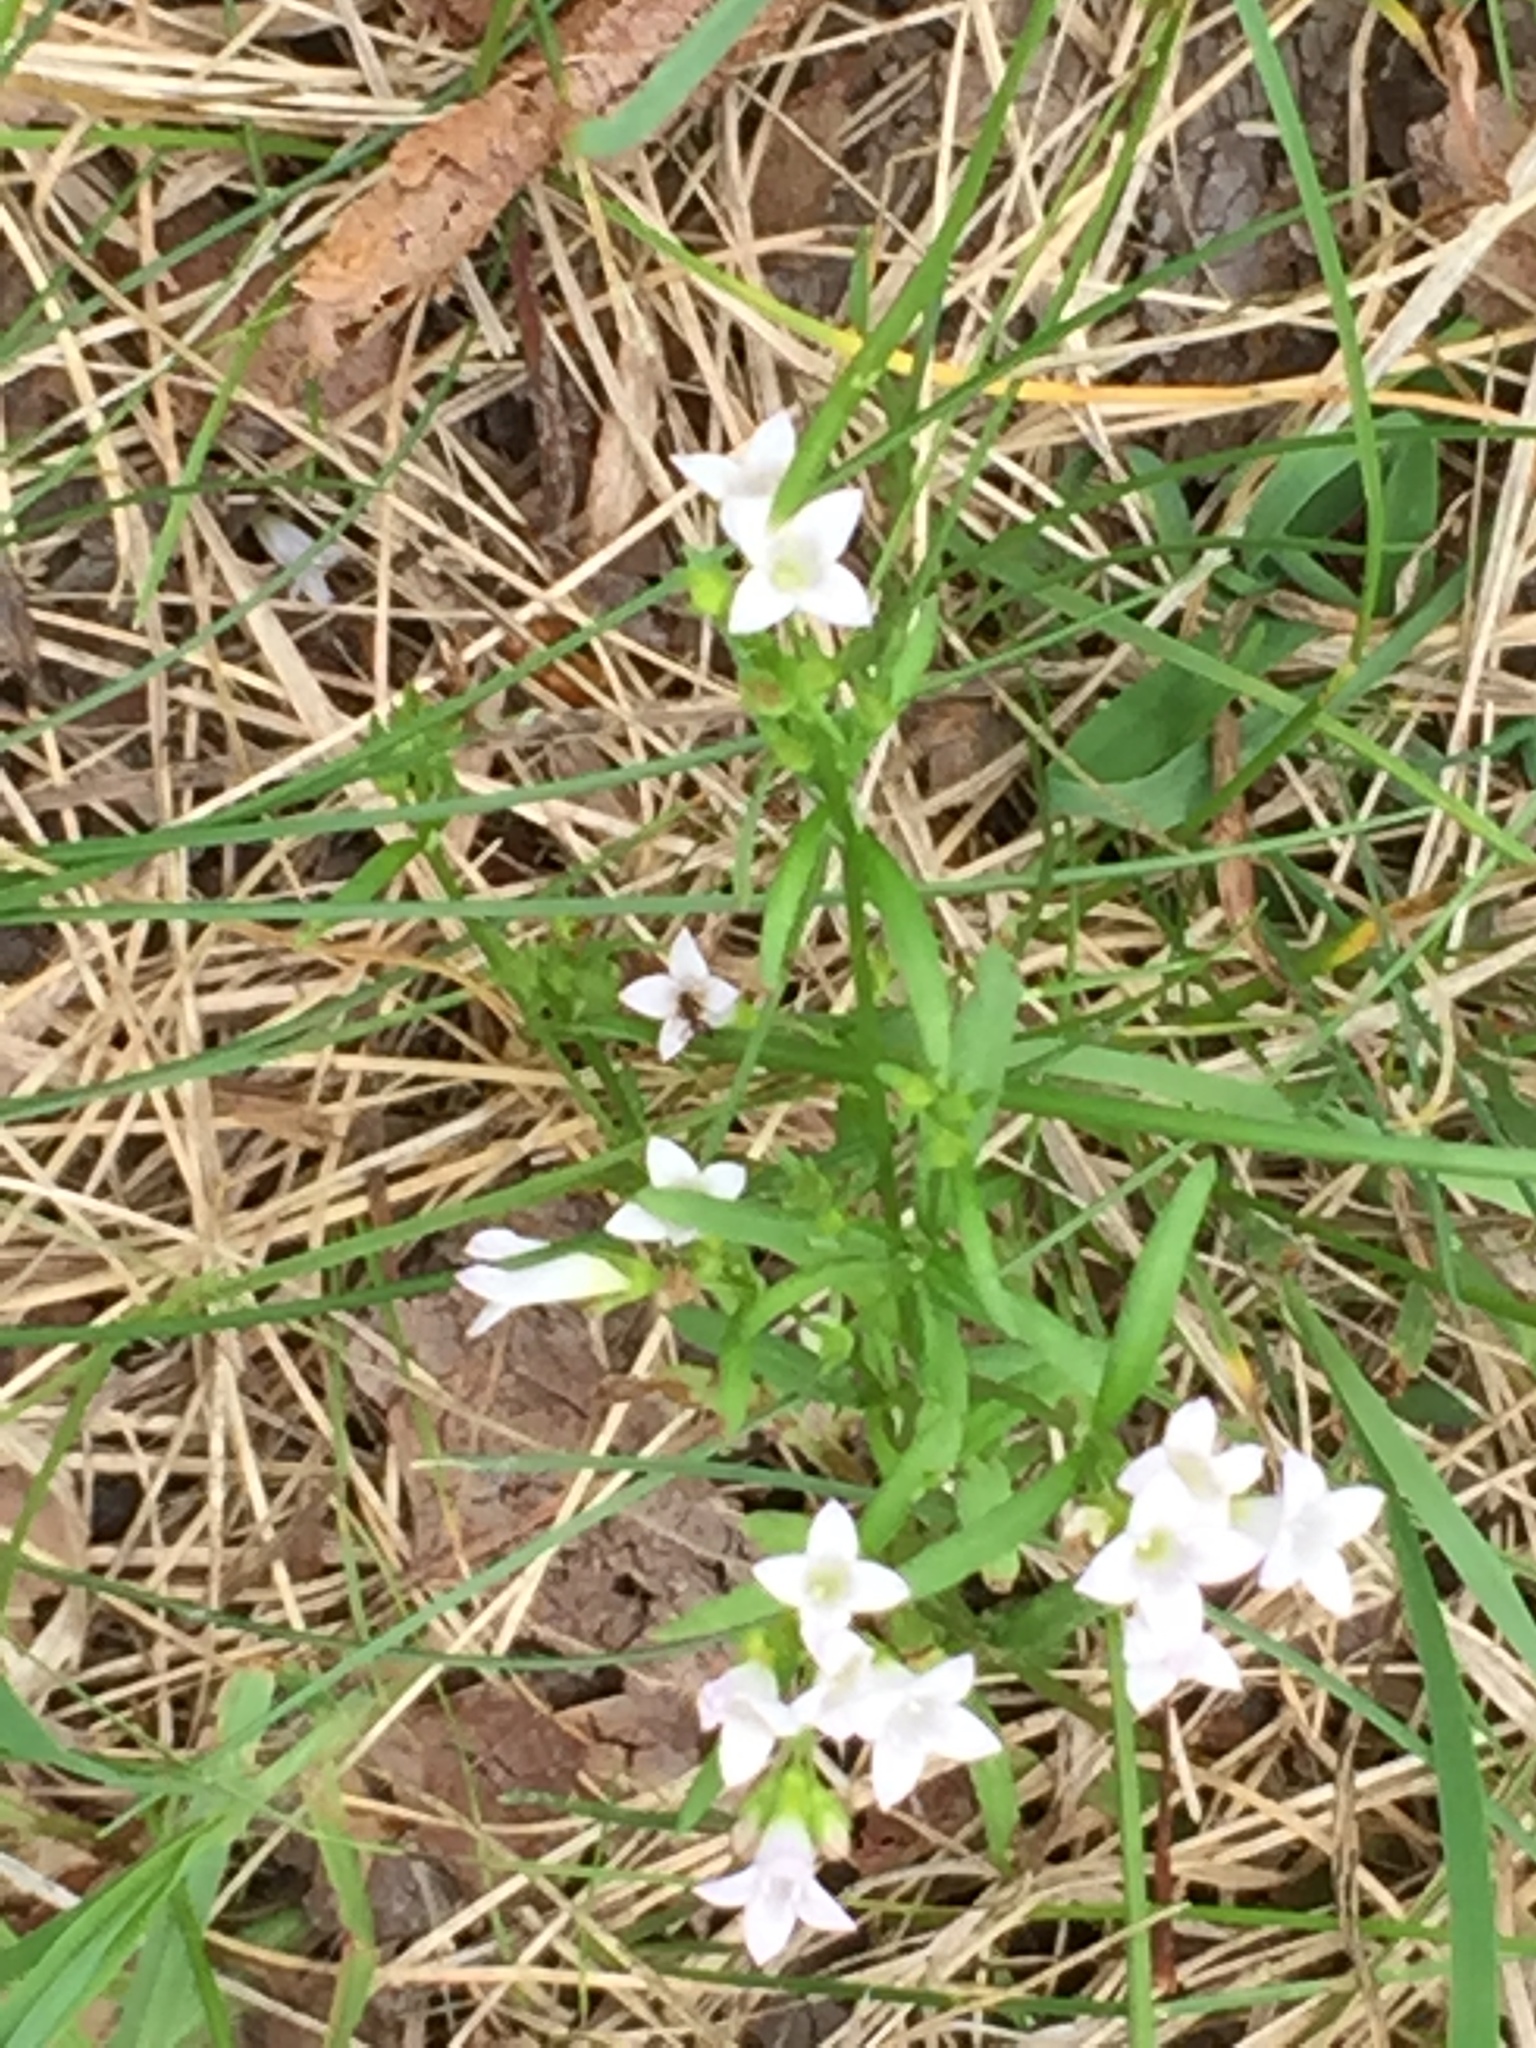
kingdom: Plantae
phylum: Tracheophyta
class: Magnoliopsida
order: Gentianales
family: Rubiaceae
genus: Houstonia
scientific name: Houstonia longifolia
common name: Long-leaved bluets
